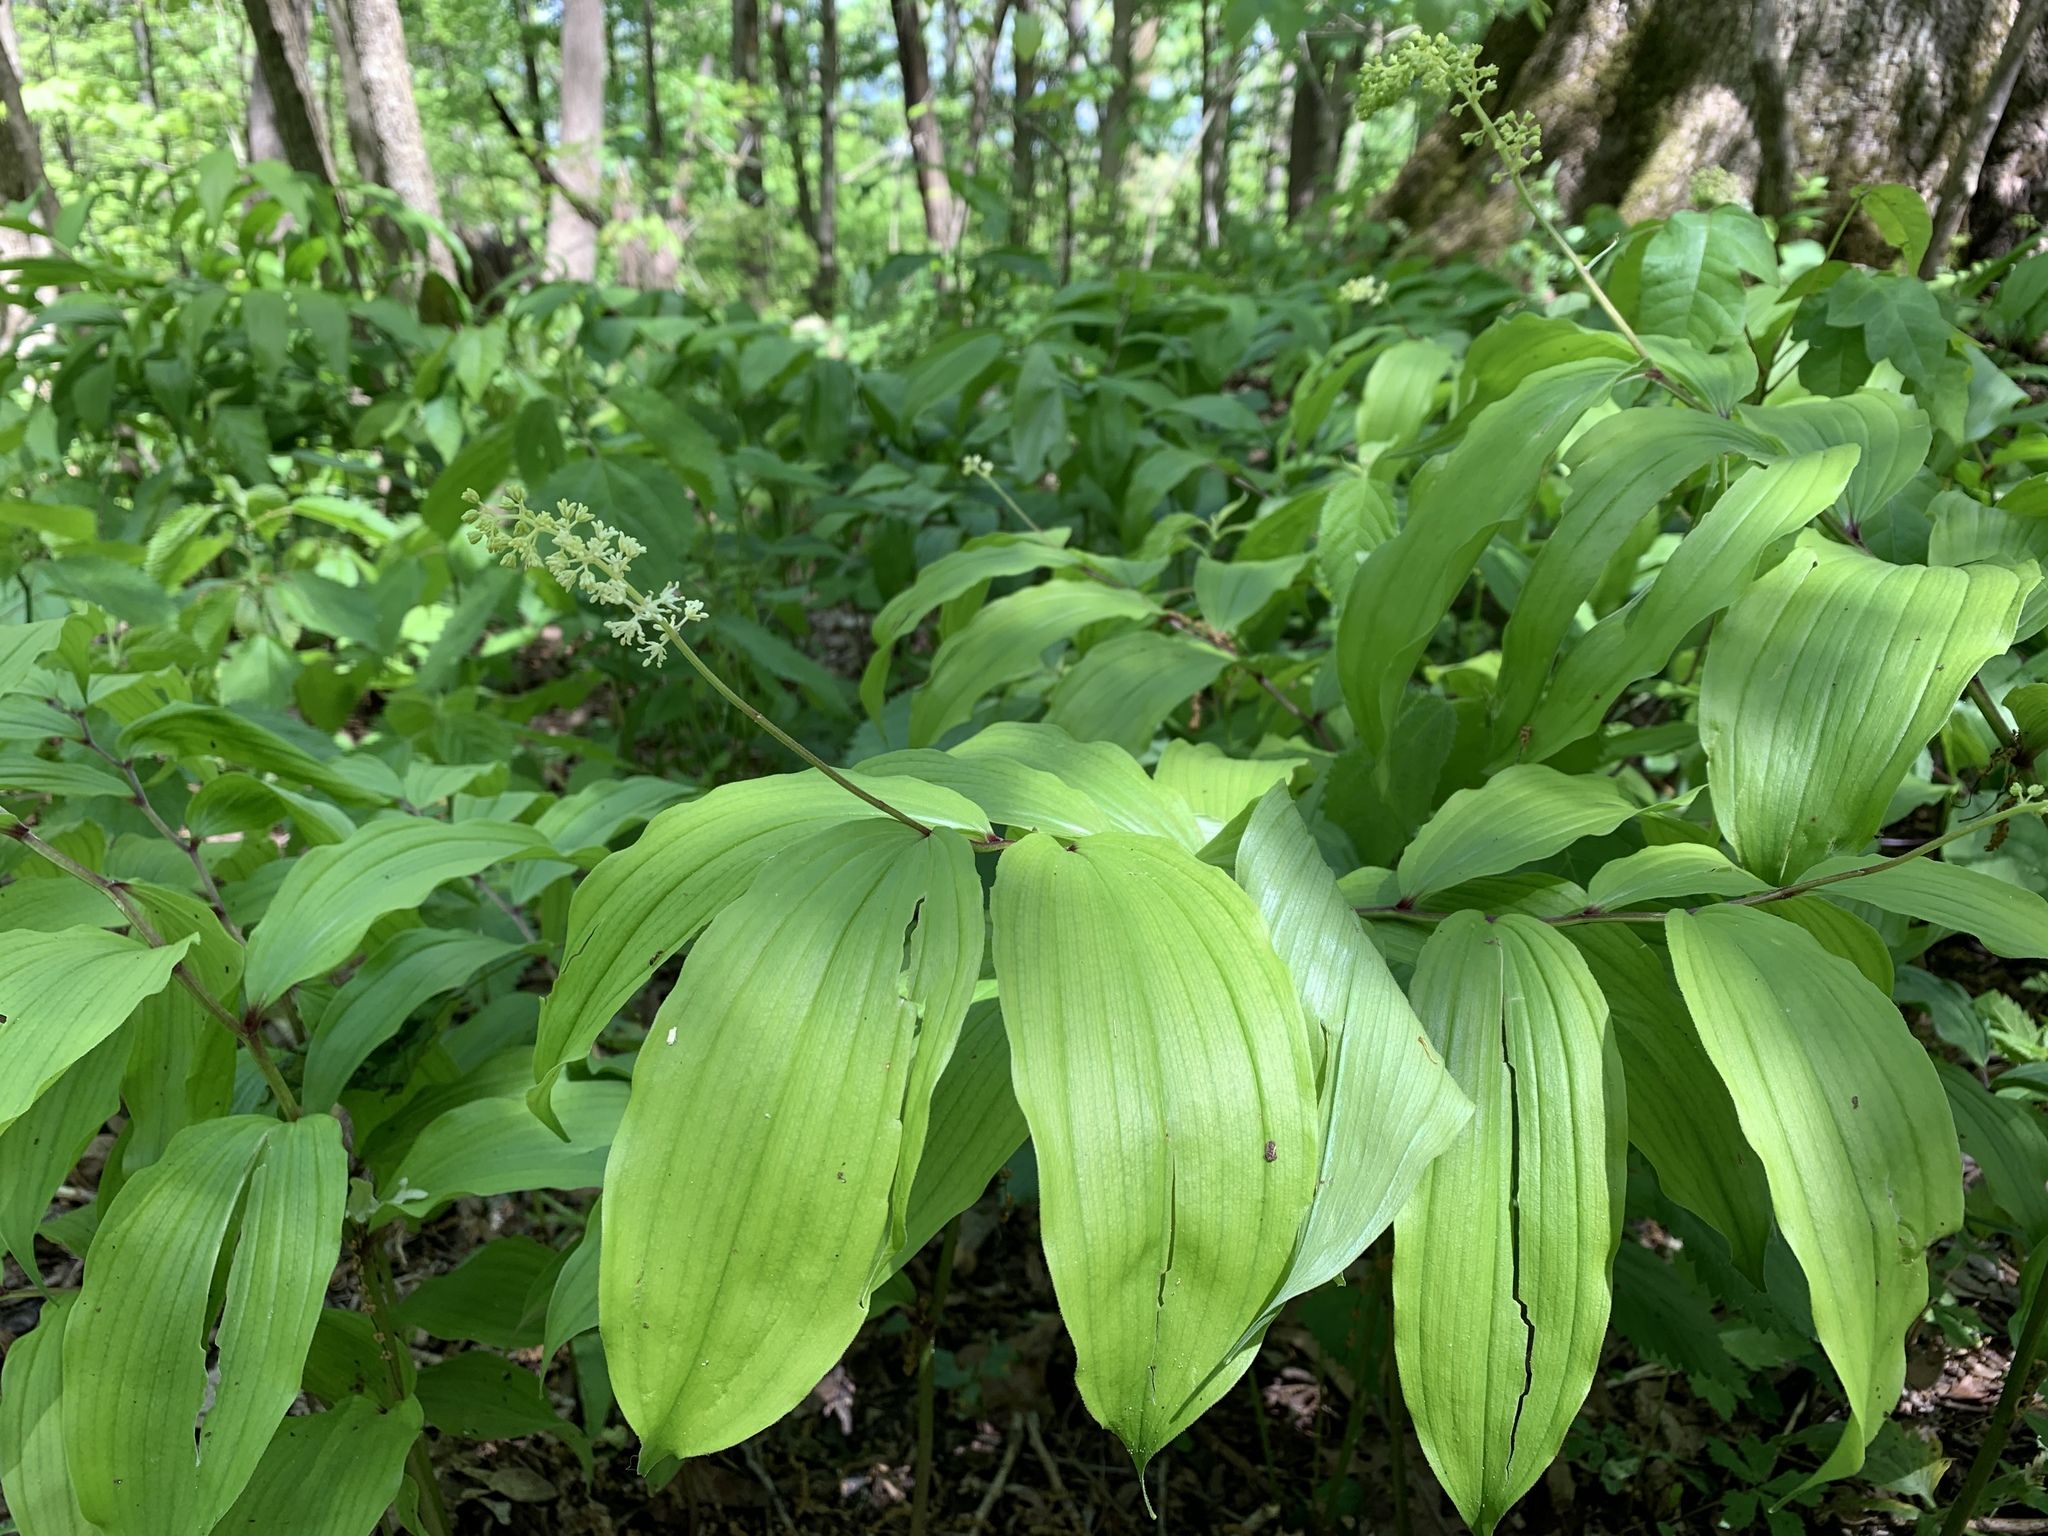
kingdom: Plantae
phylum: Tracheophyta
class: Liliopsida
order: Asparagales
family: Asparagaceae
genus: Maianthemum
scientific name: Maianthemum racemosum
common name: False spikenard
